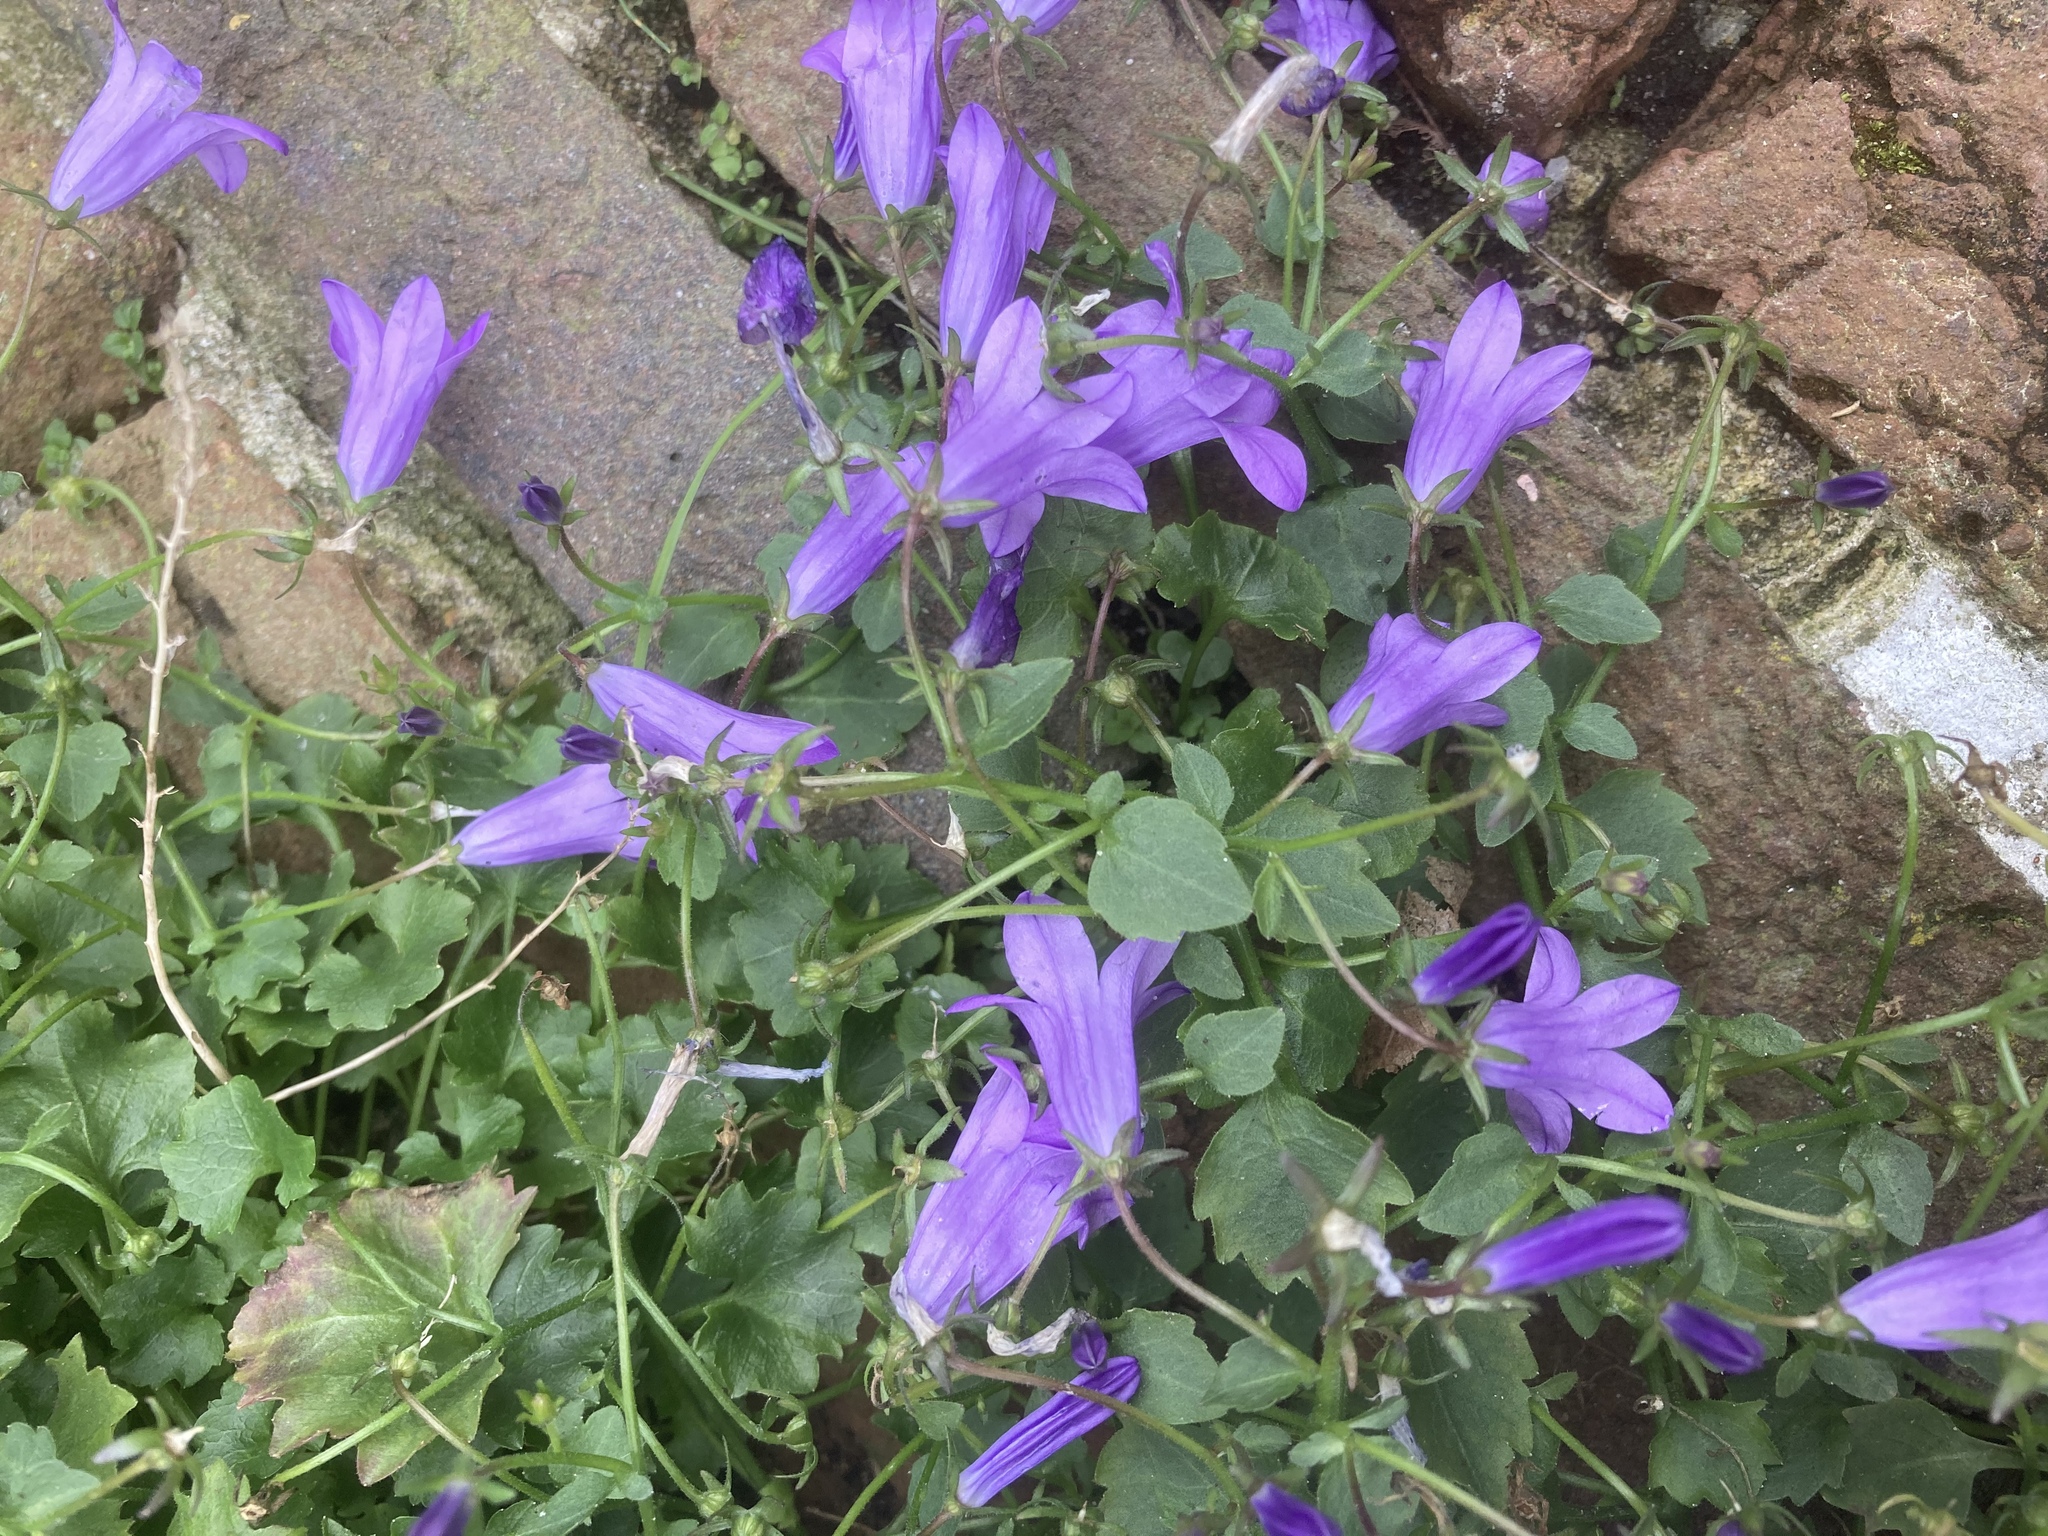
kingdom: Plantae
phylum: Tracheophyta
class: Magnoliopsida
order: Asterales
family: Campanulaceae
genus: Campanula
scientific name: Campanula poscharskyana
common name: Trailing bellflower
